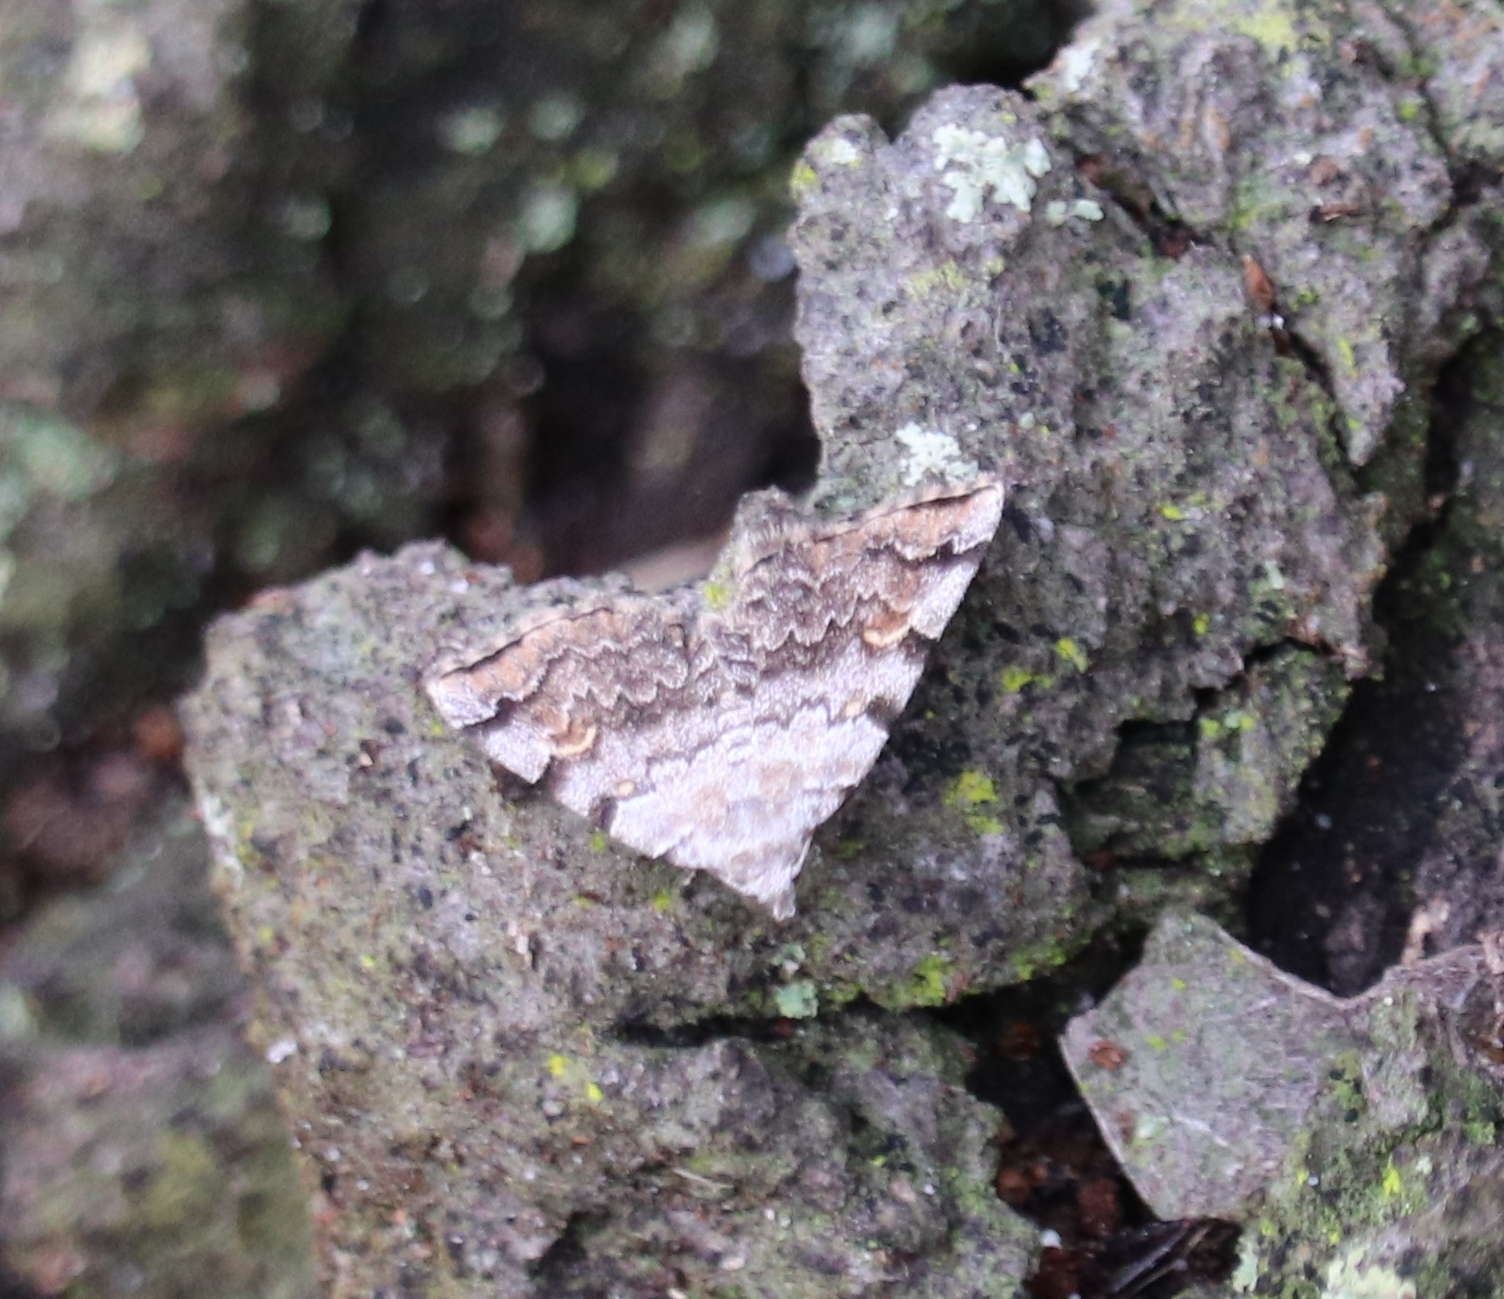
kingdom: Animalia
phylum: Arthropoda
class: Insecta
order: Lepidoptera
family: Erebidae
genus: Idia
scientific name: Idia americalis
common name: American idia moth
